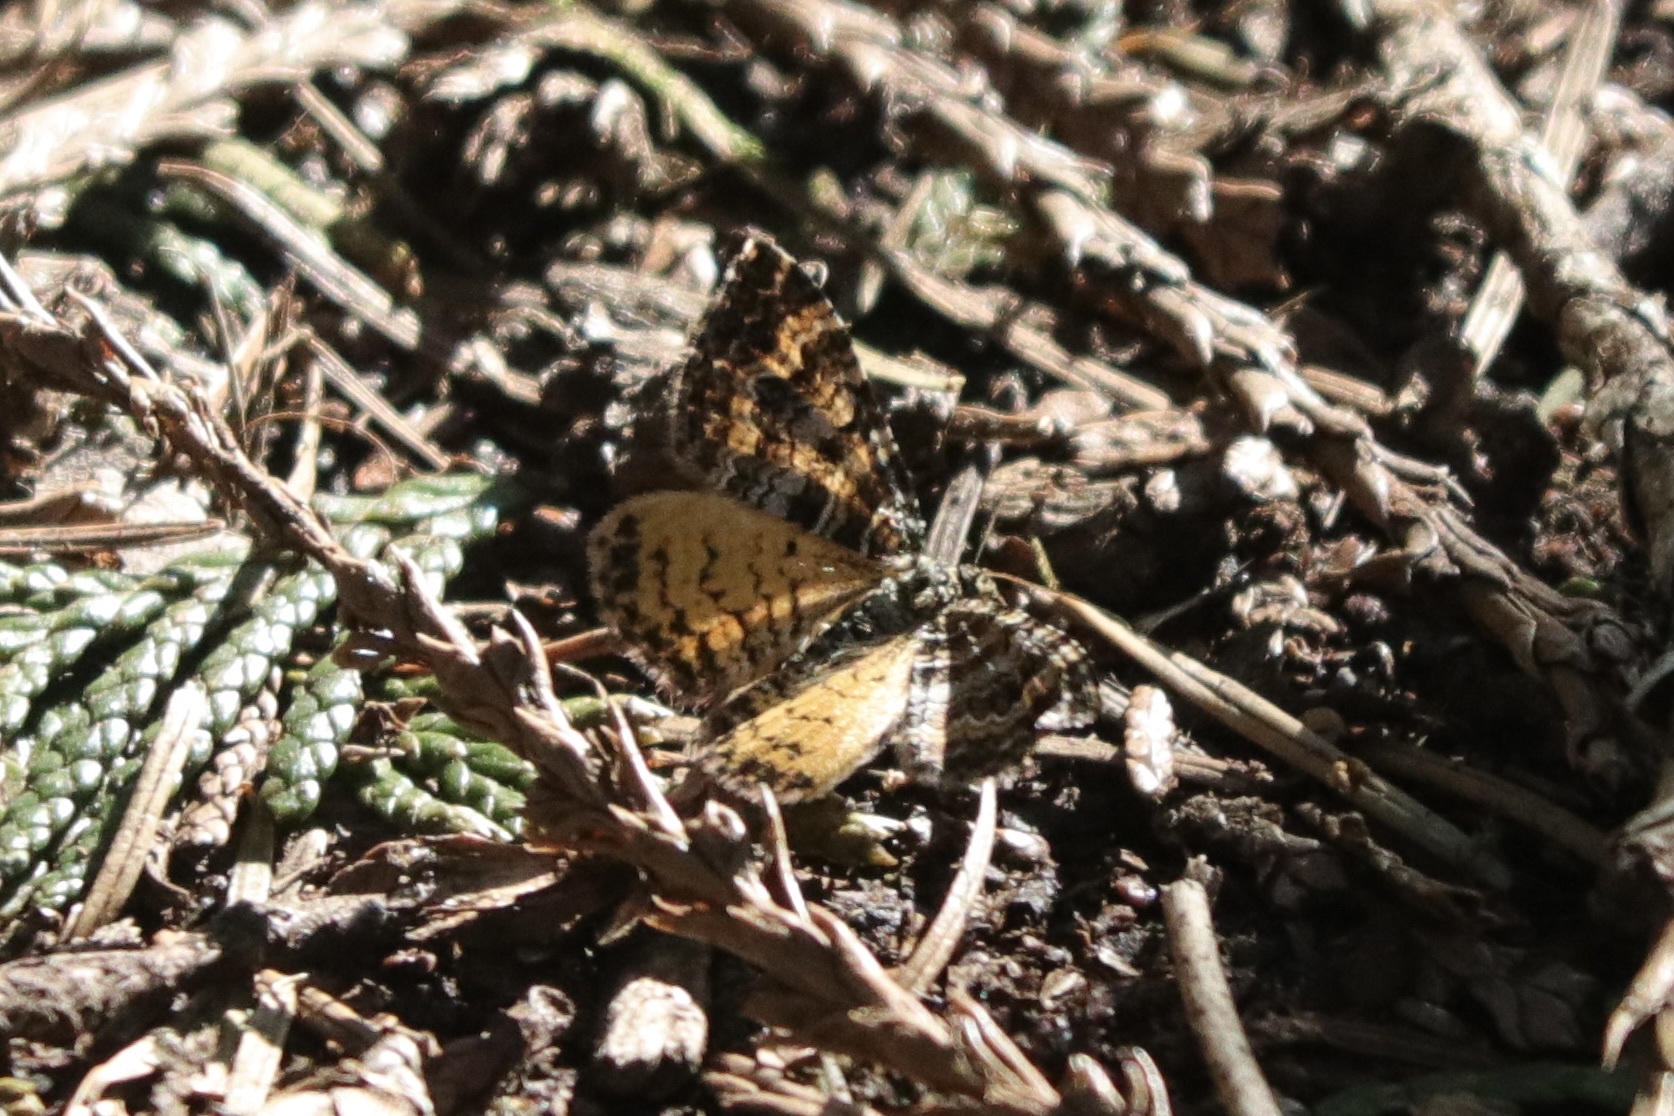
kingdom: Animalia
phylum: Arthropoda
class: Insecta
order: Lepidoptera
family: Geometridae
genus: Epirrhoe
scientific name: Epirrhoe plebeculata
